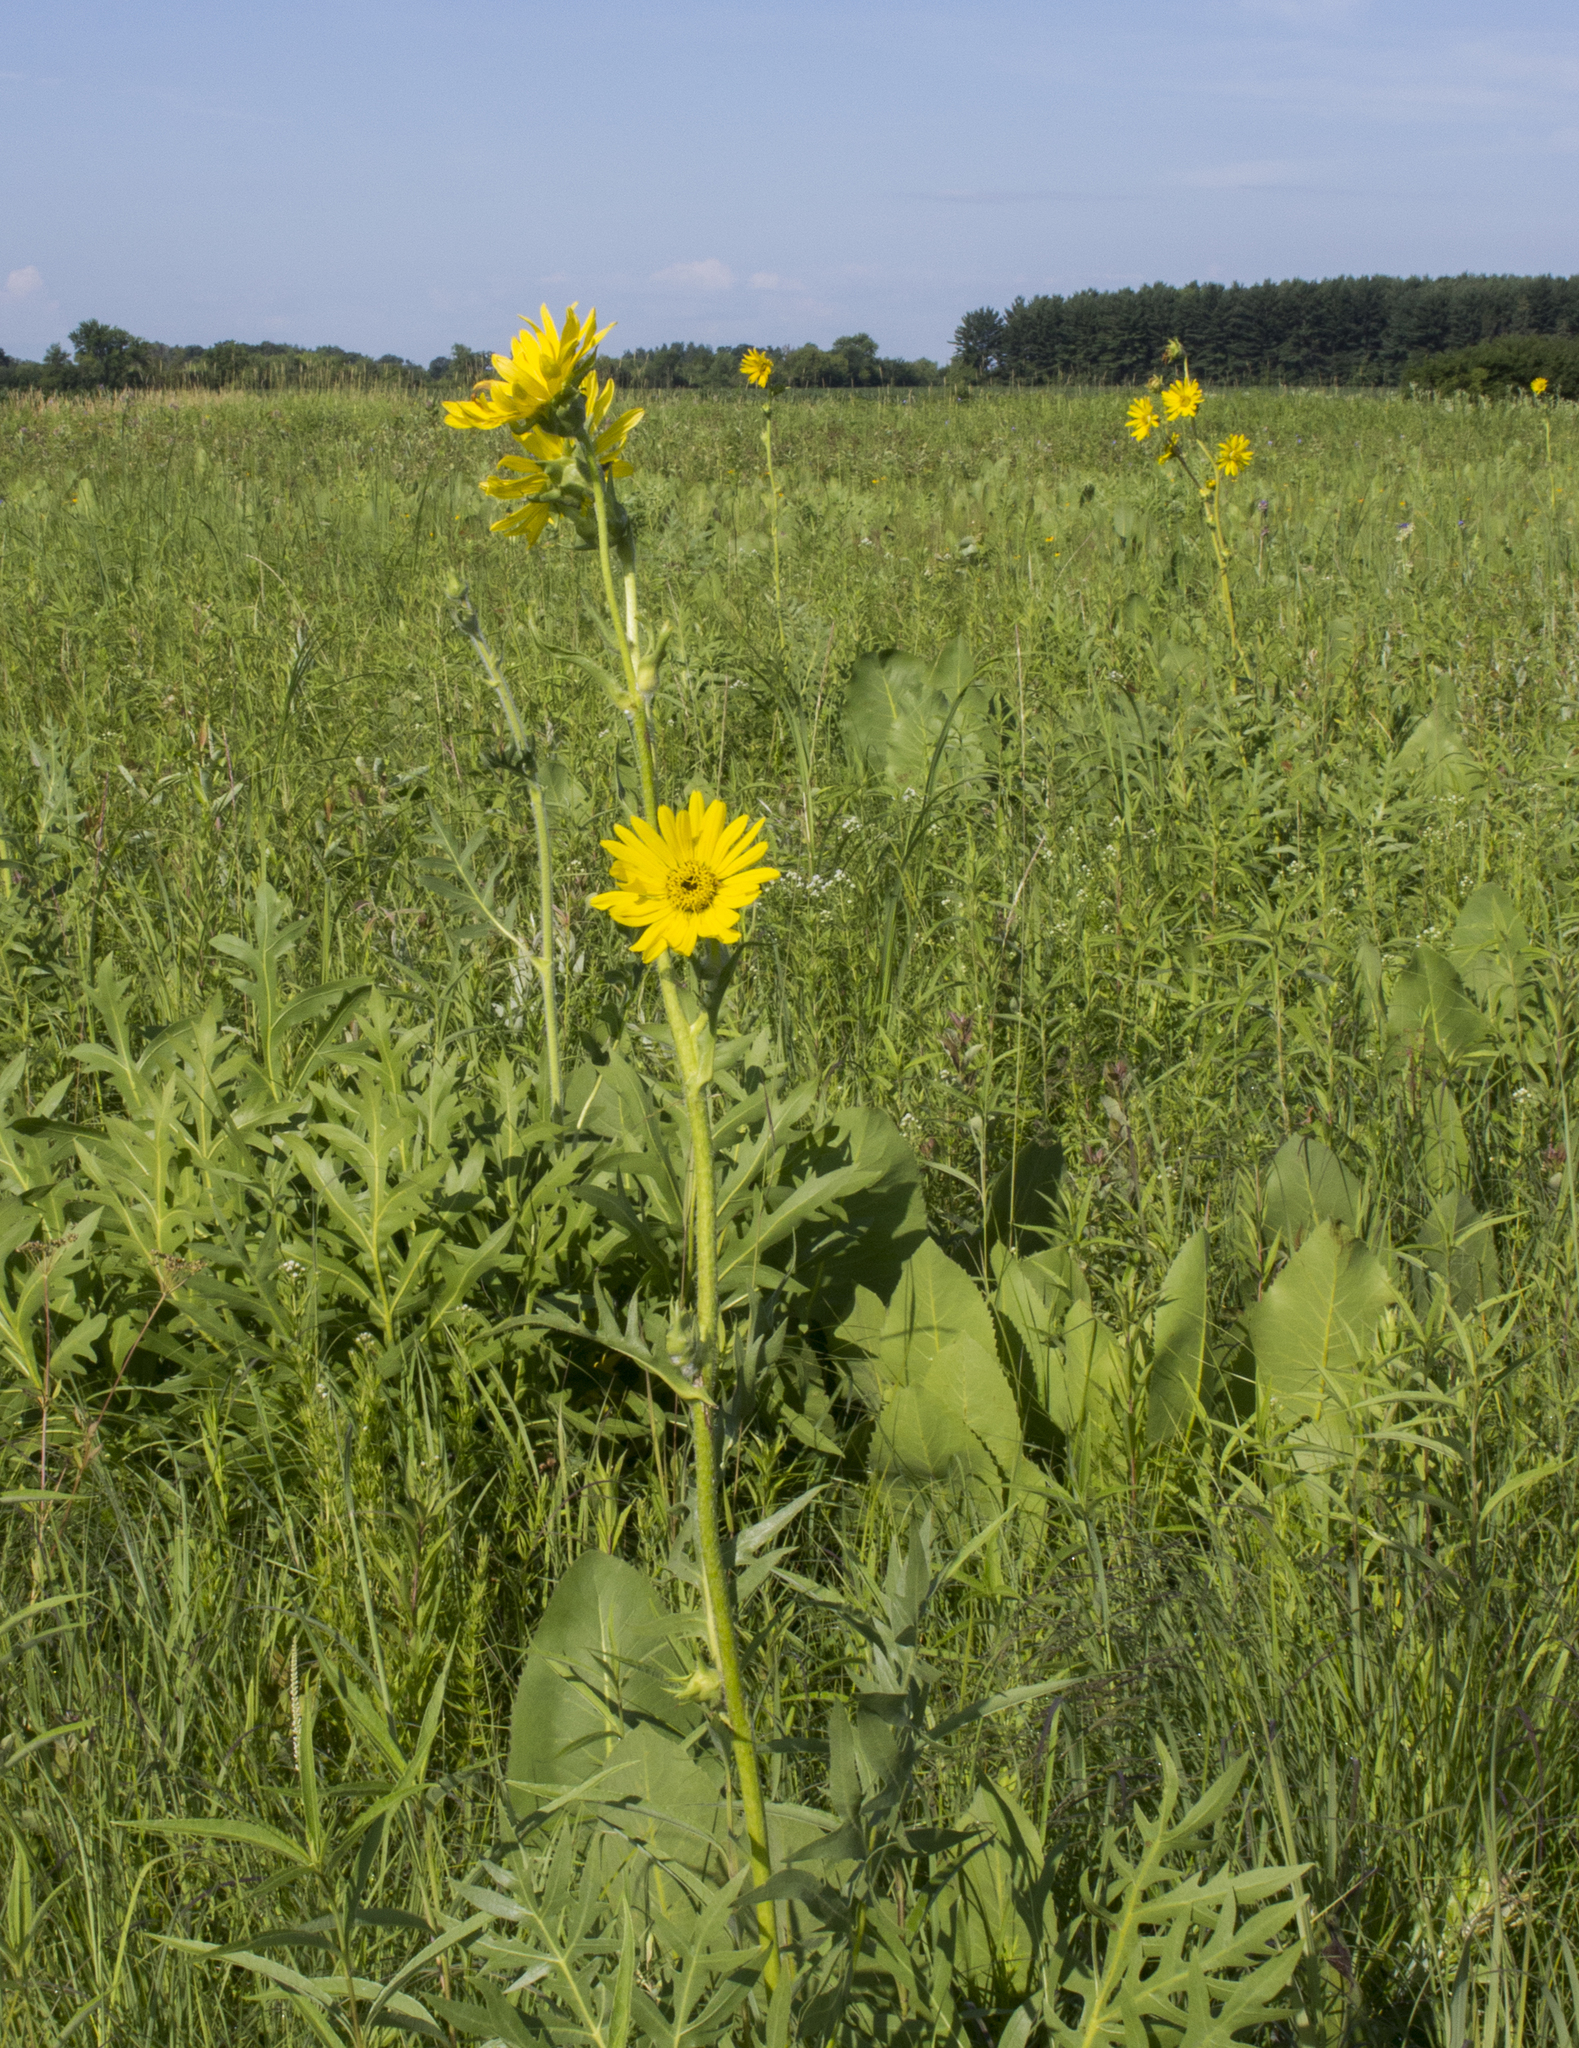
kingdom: Plantae
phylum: Tracheophyta
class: Magnoliopsida
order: Asterales
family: Asteraceae
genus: Silphium
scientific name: Silphium laciniatum
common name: Polarplant
